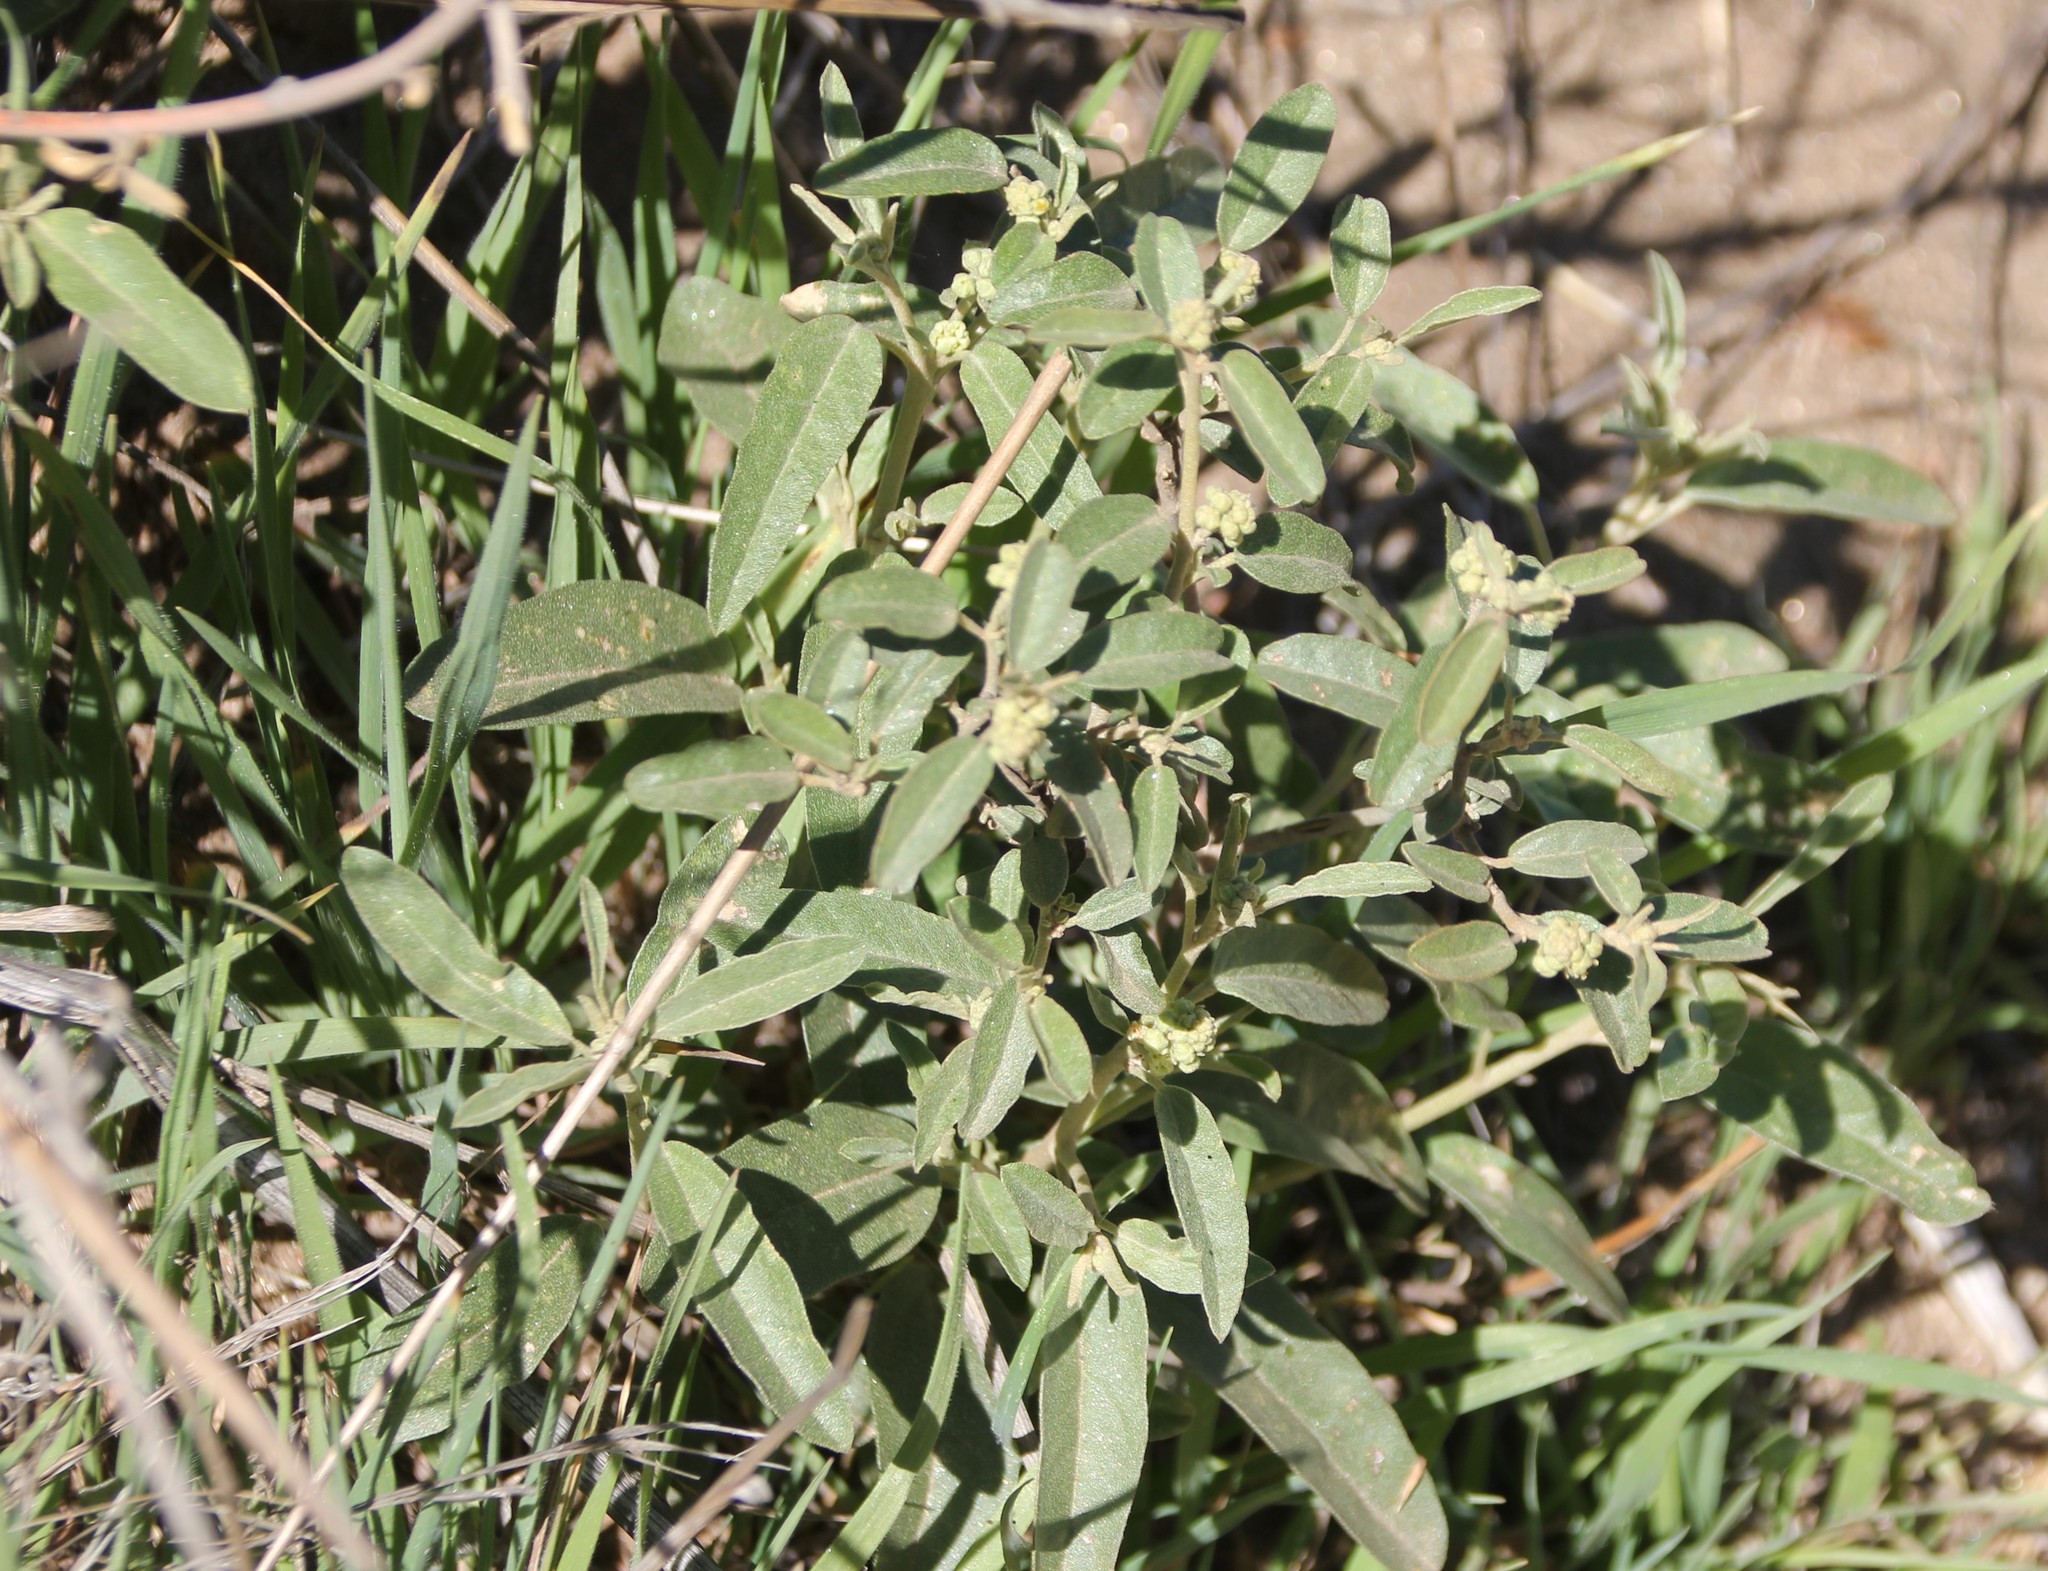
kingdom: Plantae
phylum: Tracheophyta
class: Magnoliopsida
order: Malpighiales
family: Euphorbiaceae
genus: Croton
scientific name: Croton californicus
